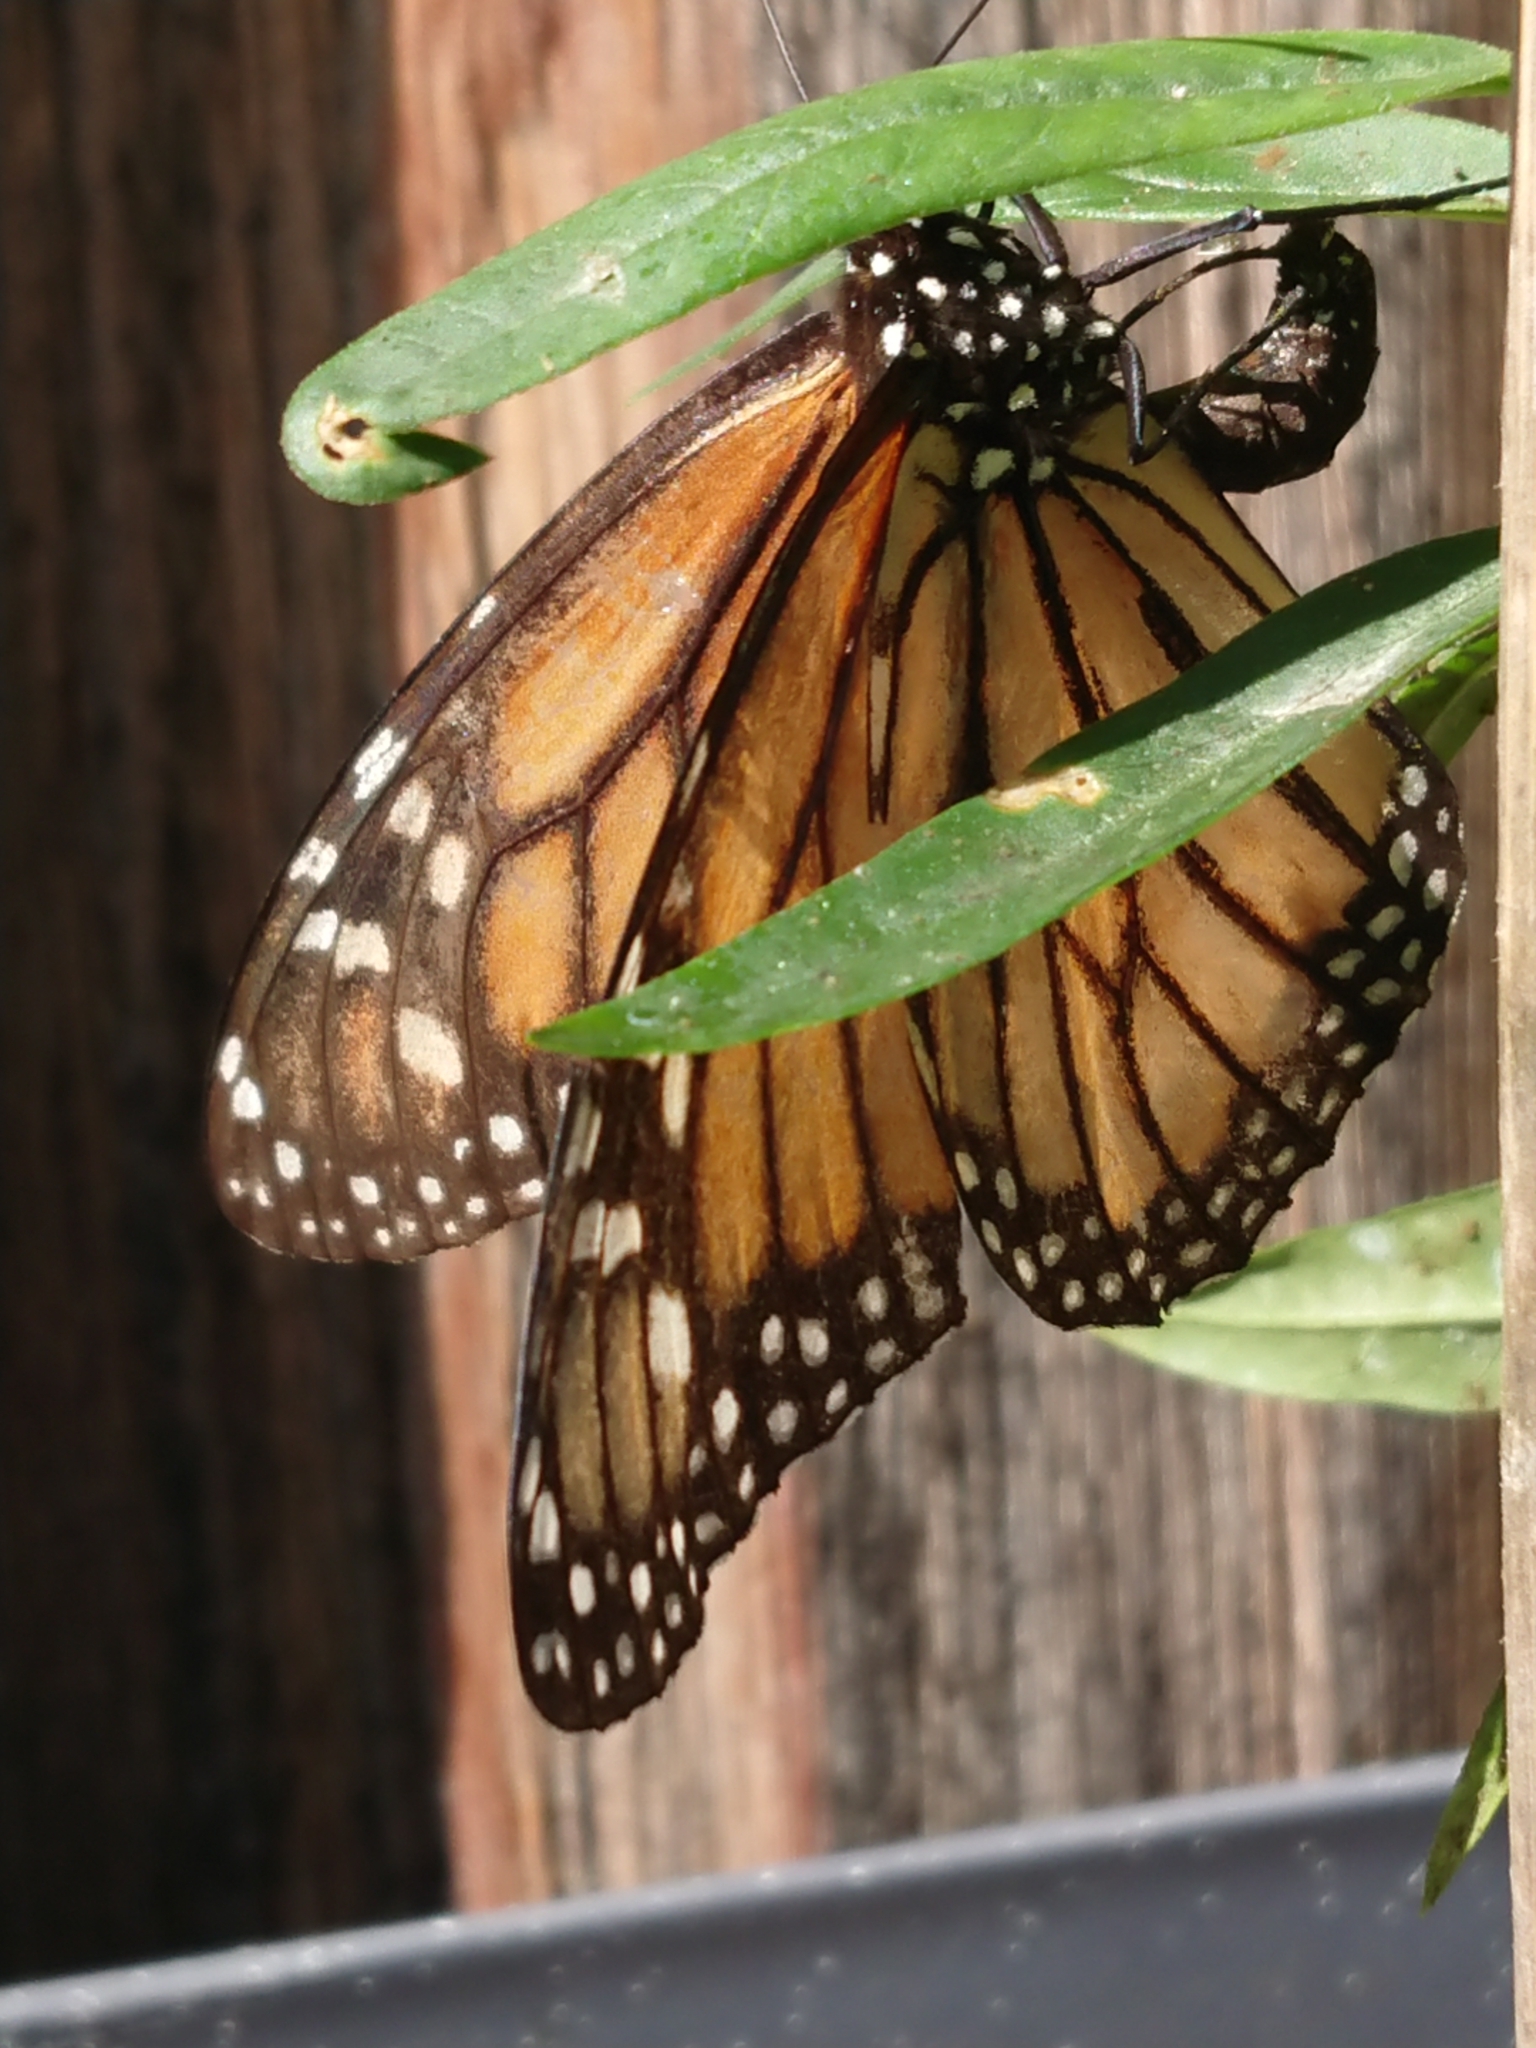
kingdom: Animalia
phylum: Arthropoda
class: Insecta
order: Lepidoptera
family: Nymphalidae
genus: Danaus
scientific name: Danaus plexippus
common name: Monarch
